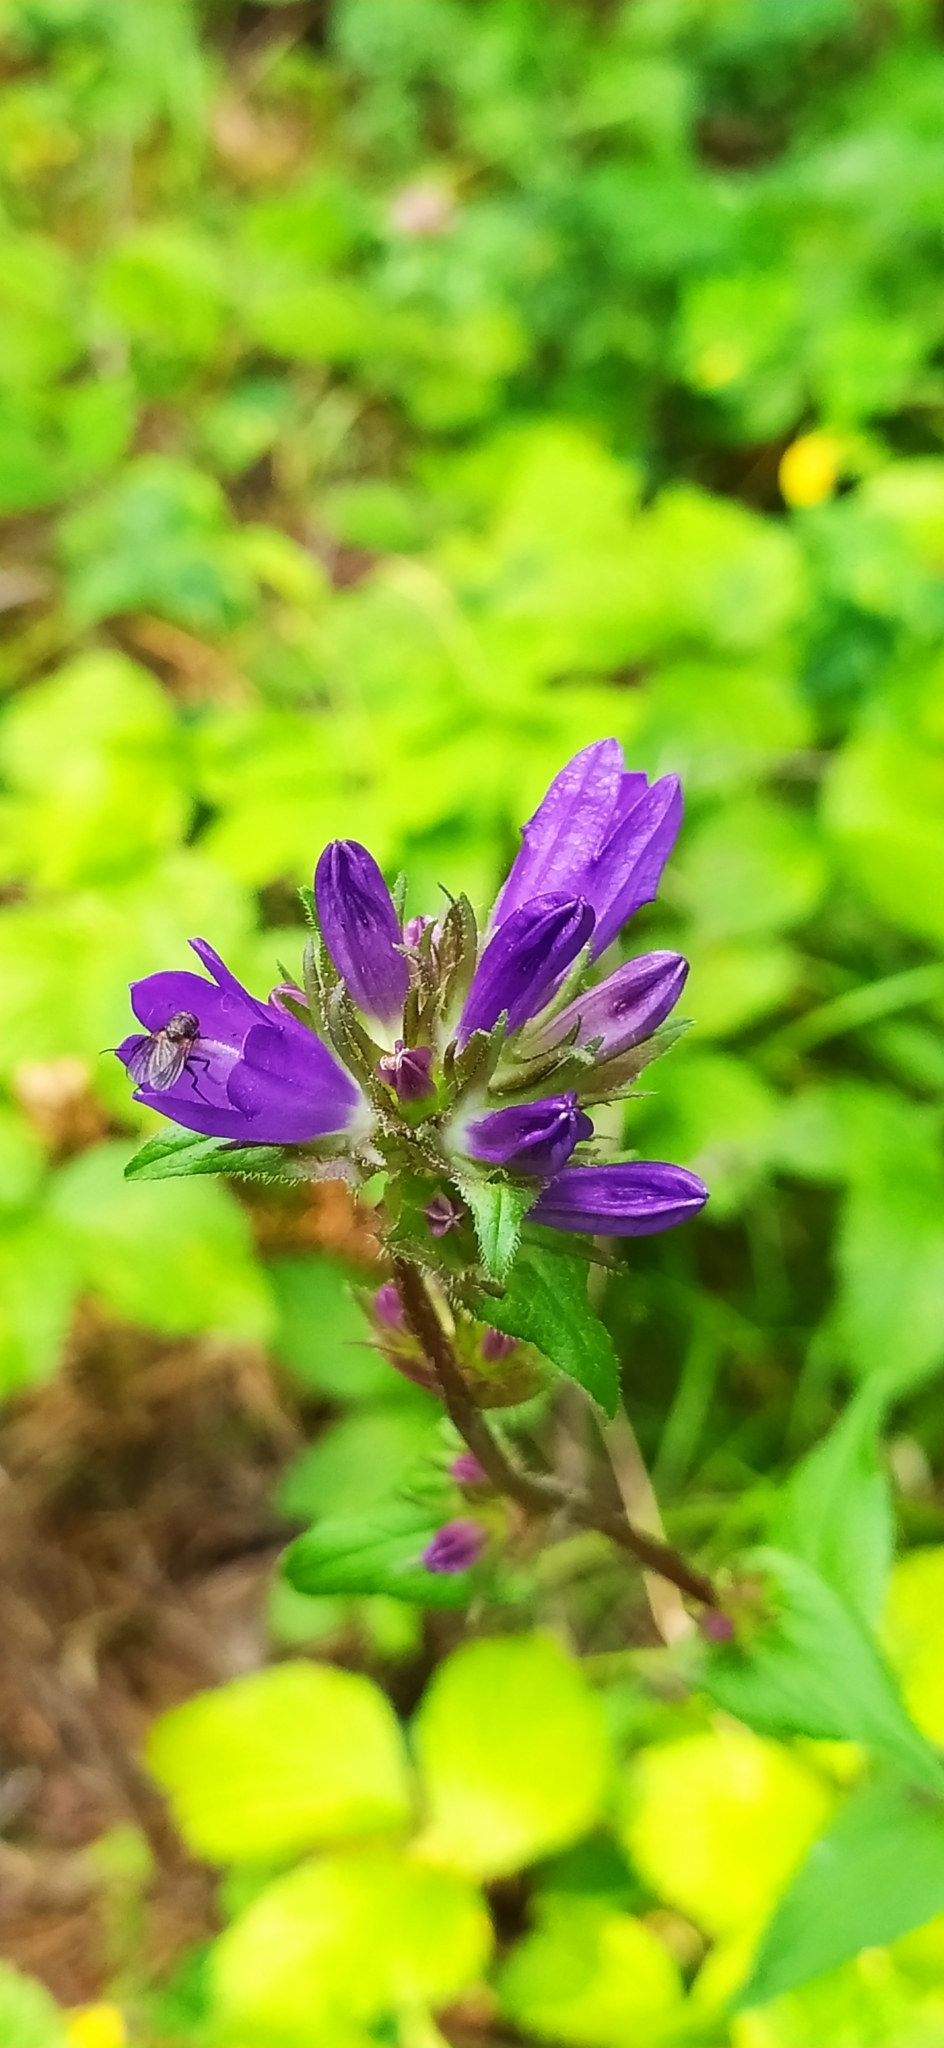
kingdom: Plantae
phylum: Tracheophyta
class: Magnoliopsida
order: Asterales
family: Campanulaceae
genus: Campanula
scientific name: Campanula glomerata
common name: Clustered bellflower
